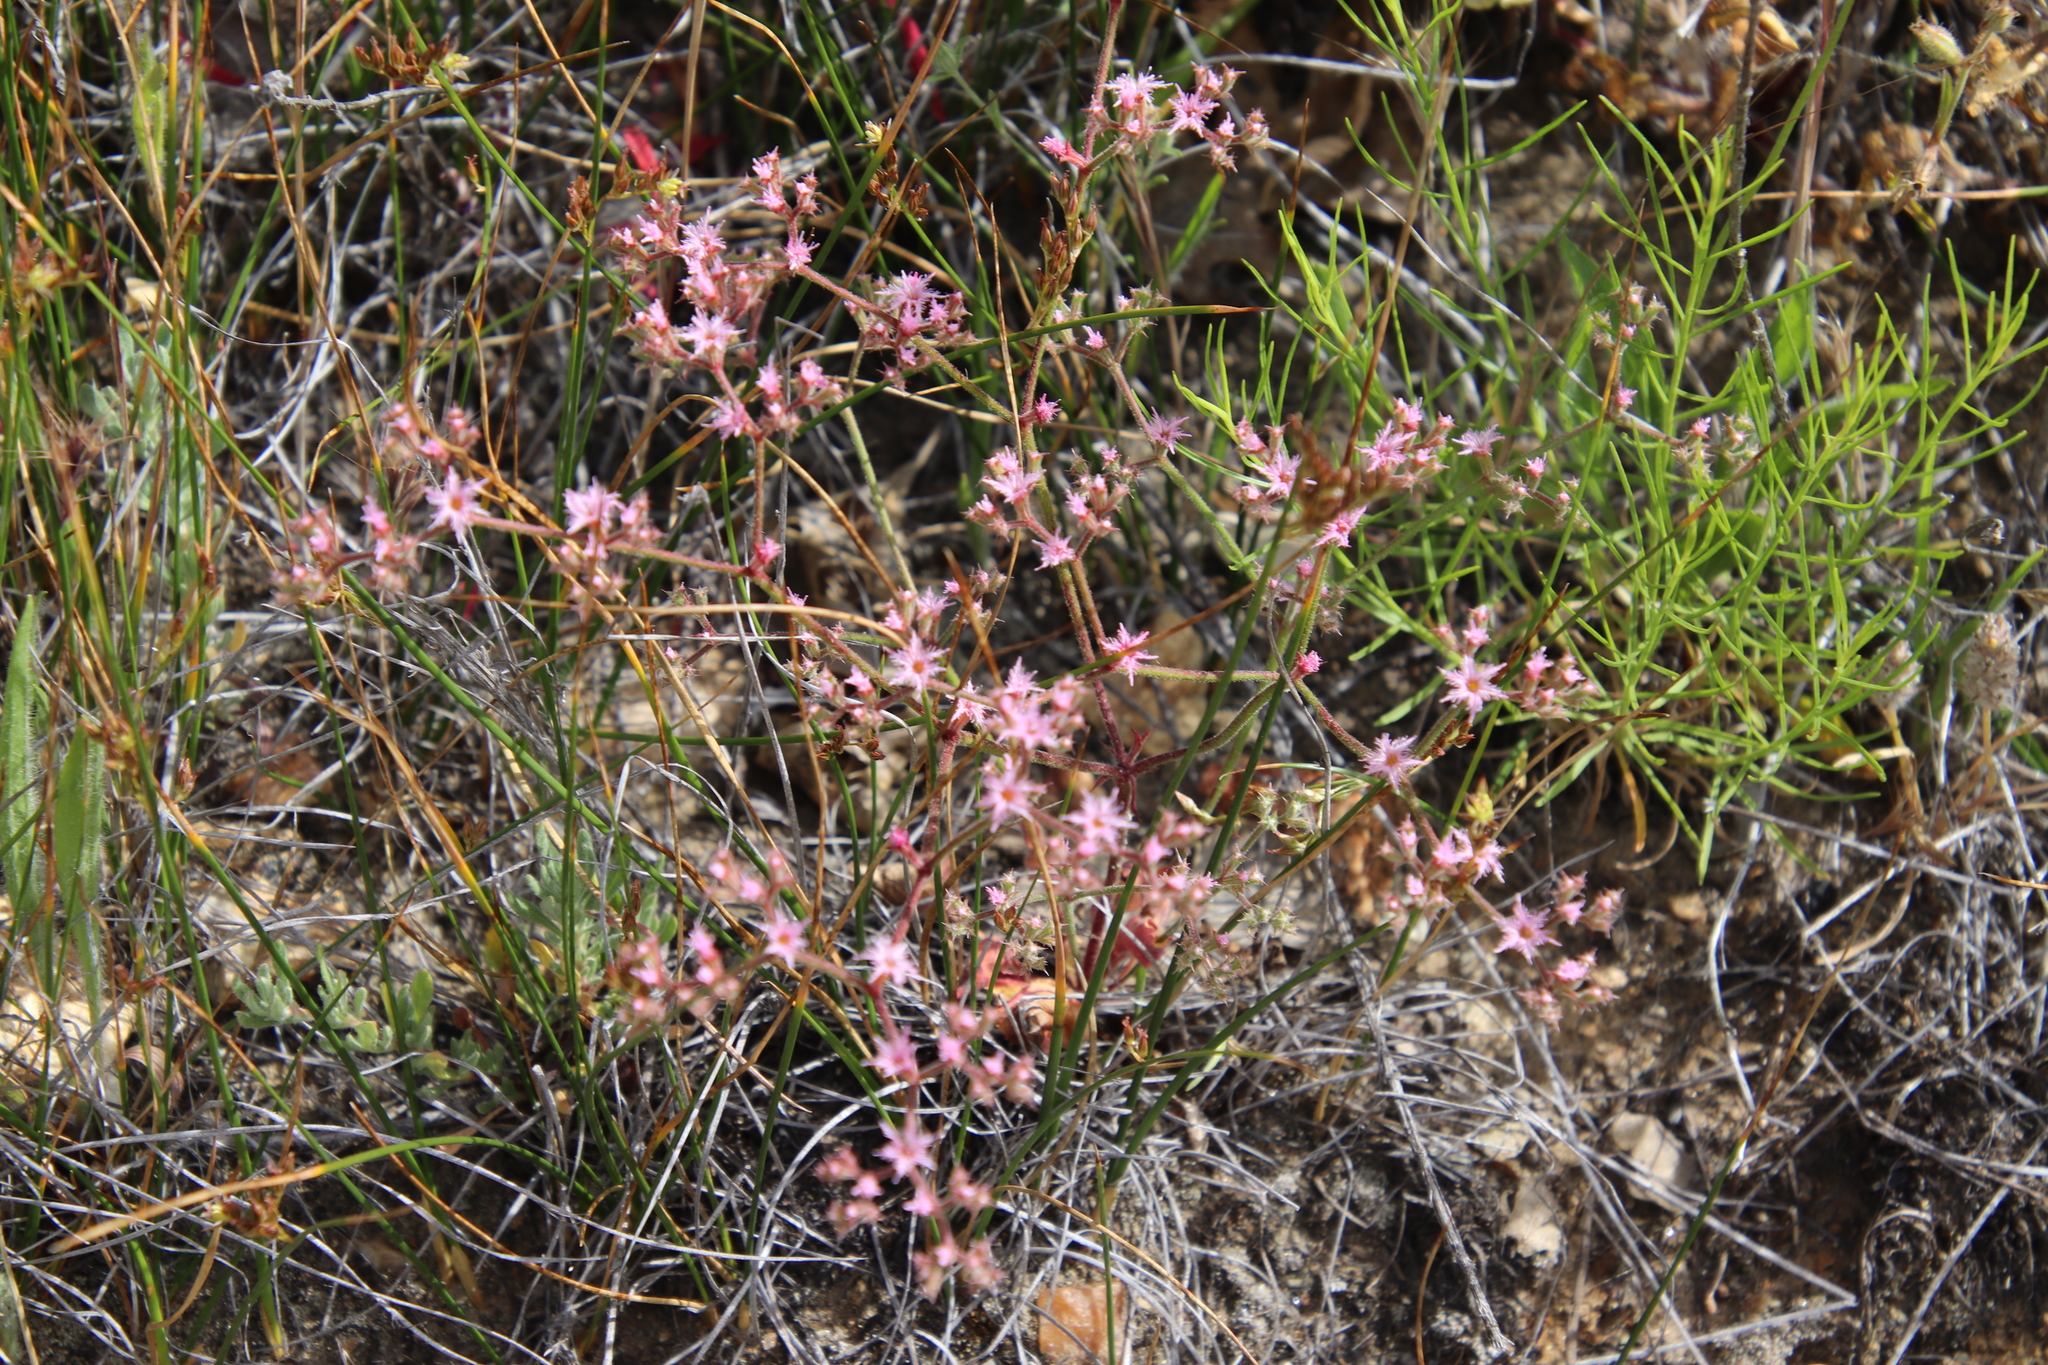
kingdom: Plantae
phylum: Tracheophyta
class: Magnoliopsida
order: Caryophyllales
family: Polygonaceae
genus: Chorizanthe
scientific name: Chorizanthe fimbriata
